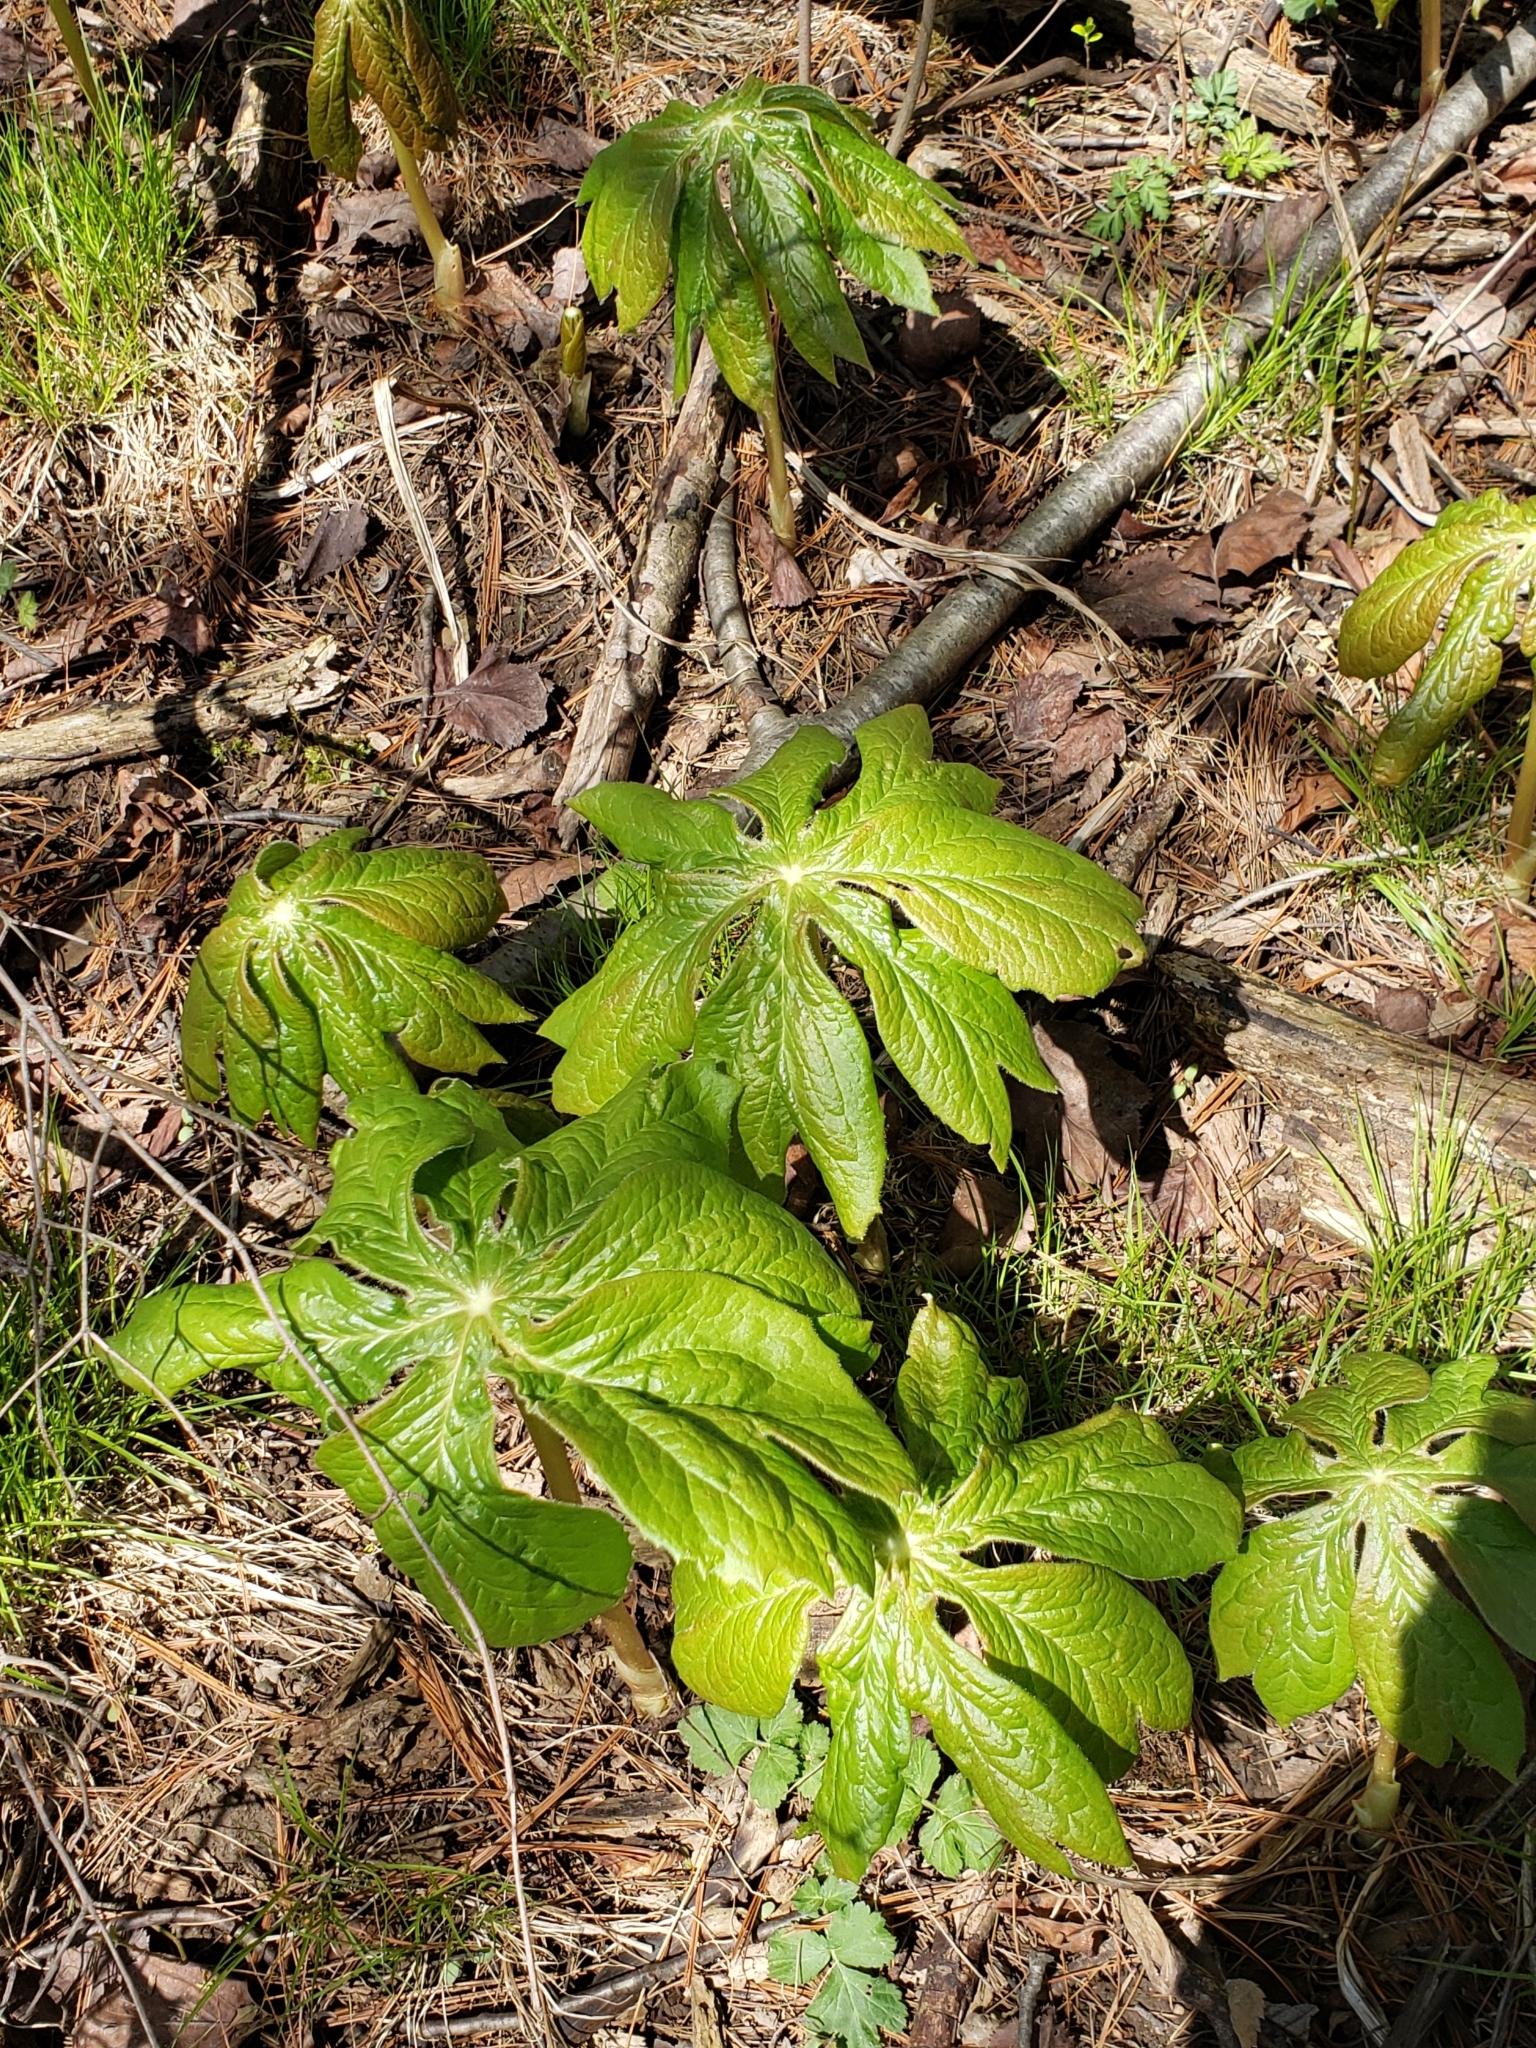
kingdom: Plantae
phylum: Tracheophyta
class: Magnoliopsida
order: Ranunculales
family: Berberidaceae
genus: Podophyllum
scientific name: Podophyllum peltatum
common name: Wild mandrake
